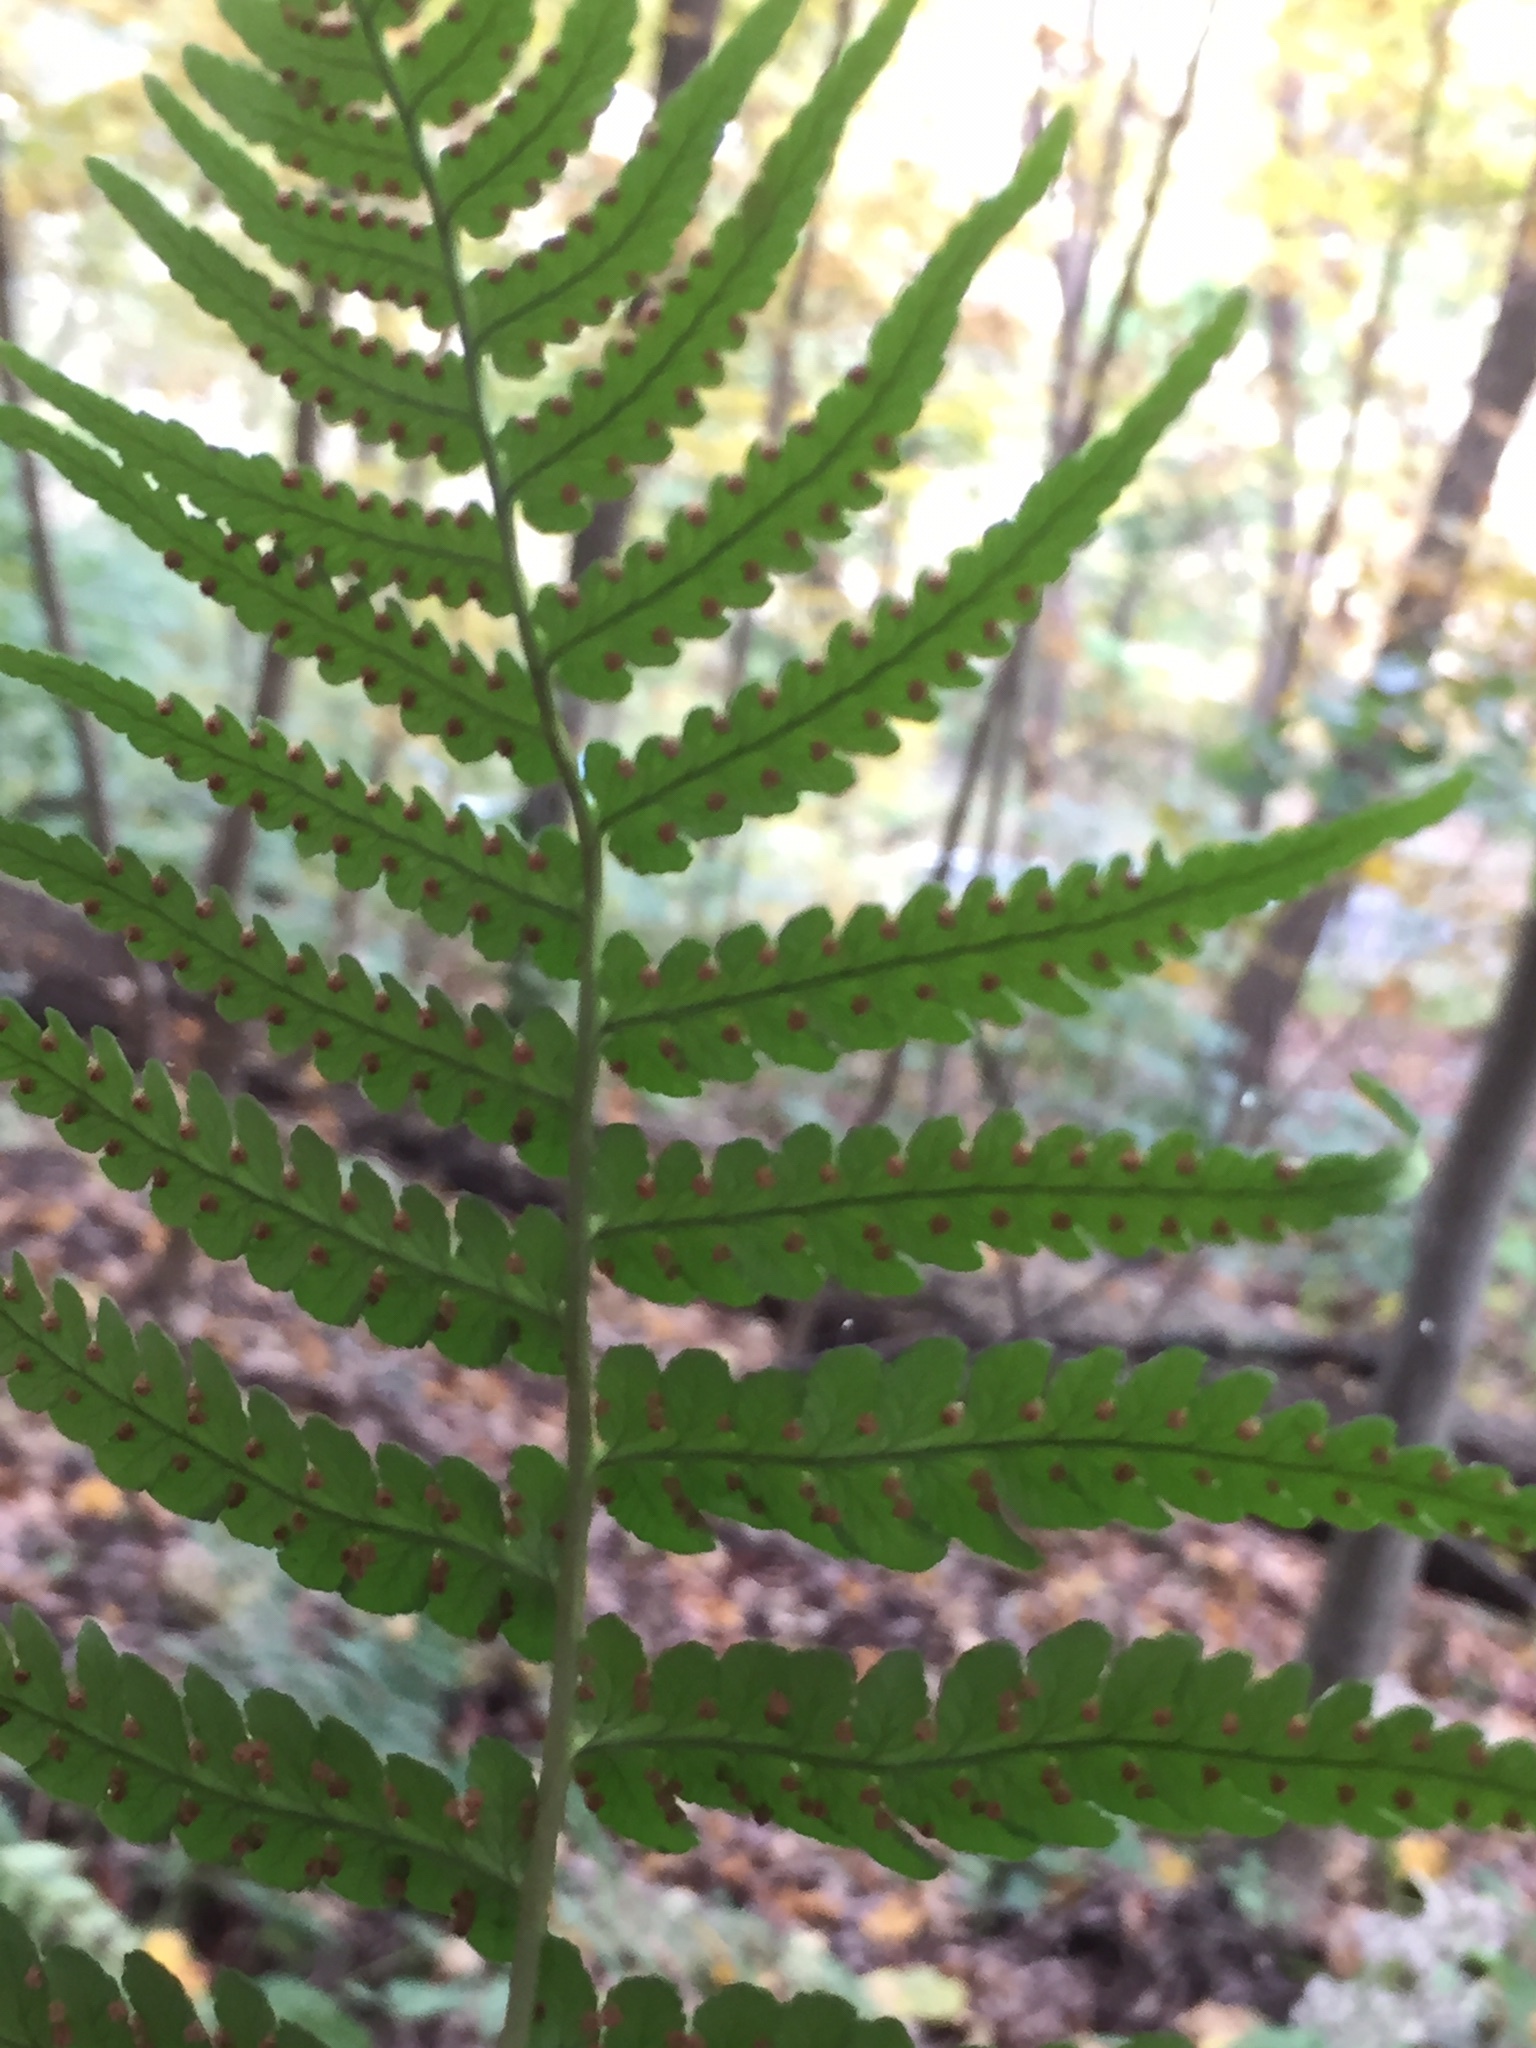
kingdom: Plantae
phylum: Tracheophyta
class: Polypodiopsida
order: Polypodiales
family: Dryopteridaceae
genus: Dryopteris
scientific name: Dryopteris marginalis
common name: Marginal wood fern
